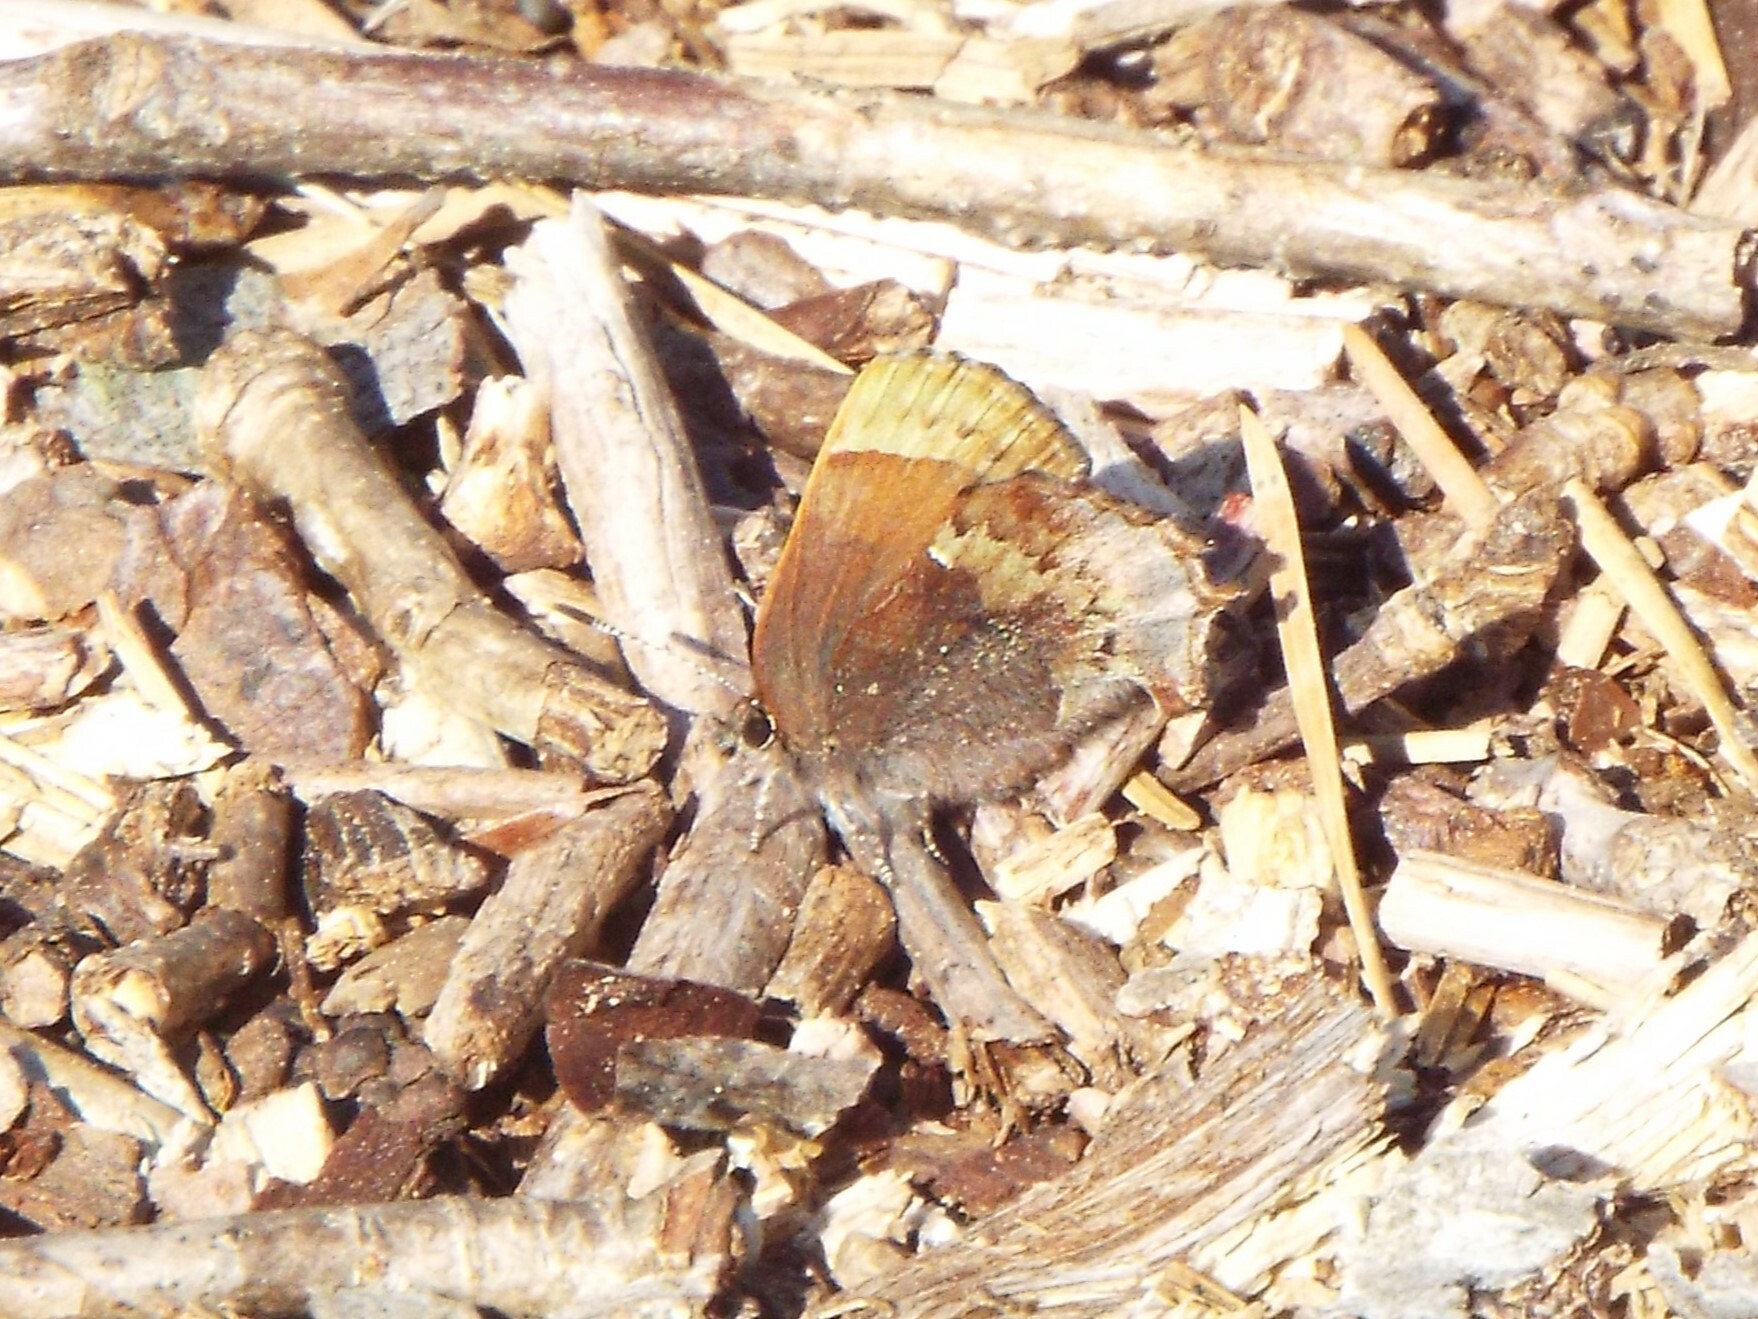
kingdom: Animalia
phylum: Arthropoda
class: Insecta
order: Lepidoptera
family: Lycaenidae
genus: Incisalia
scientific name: Incisalia henrici
